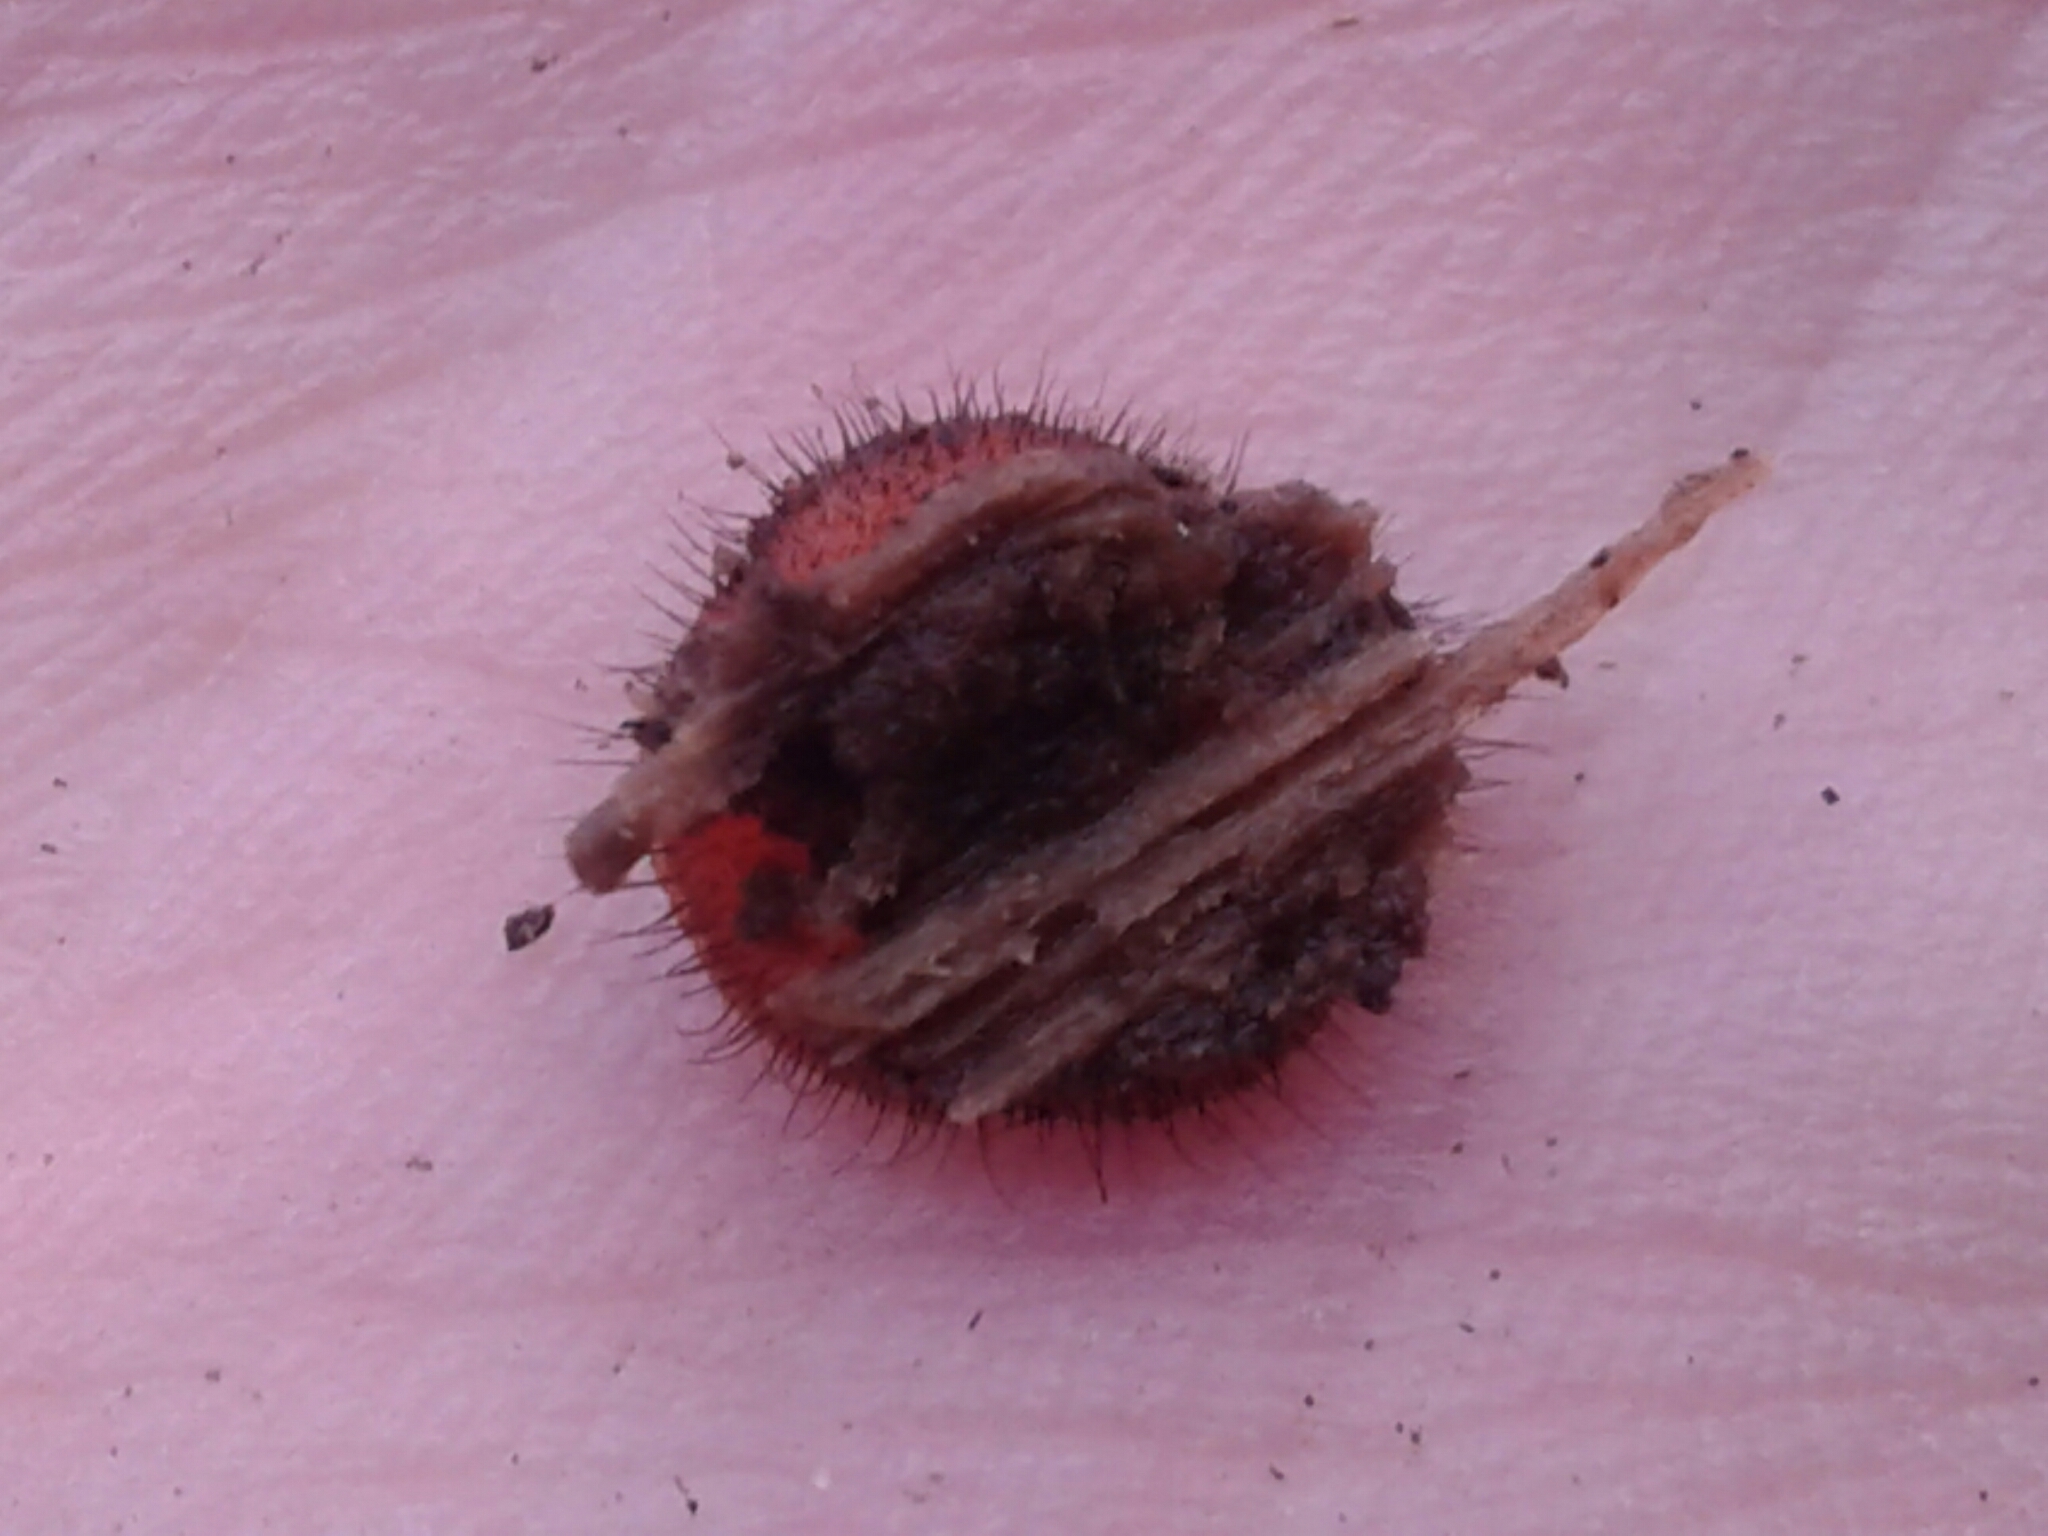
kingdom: Fungi
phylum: Ascomycota
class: Pezizomycetes
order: Pezizales
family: Pyronemataceae
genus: Scutellinia
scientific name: Scutellinia scutellata
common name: Common eyelash
